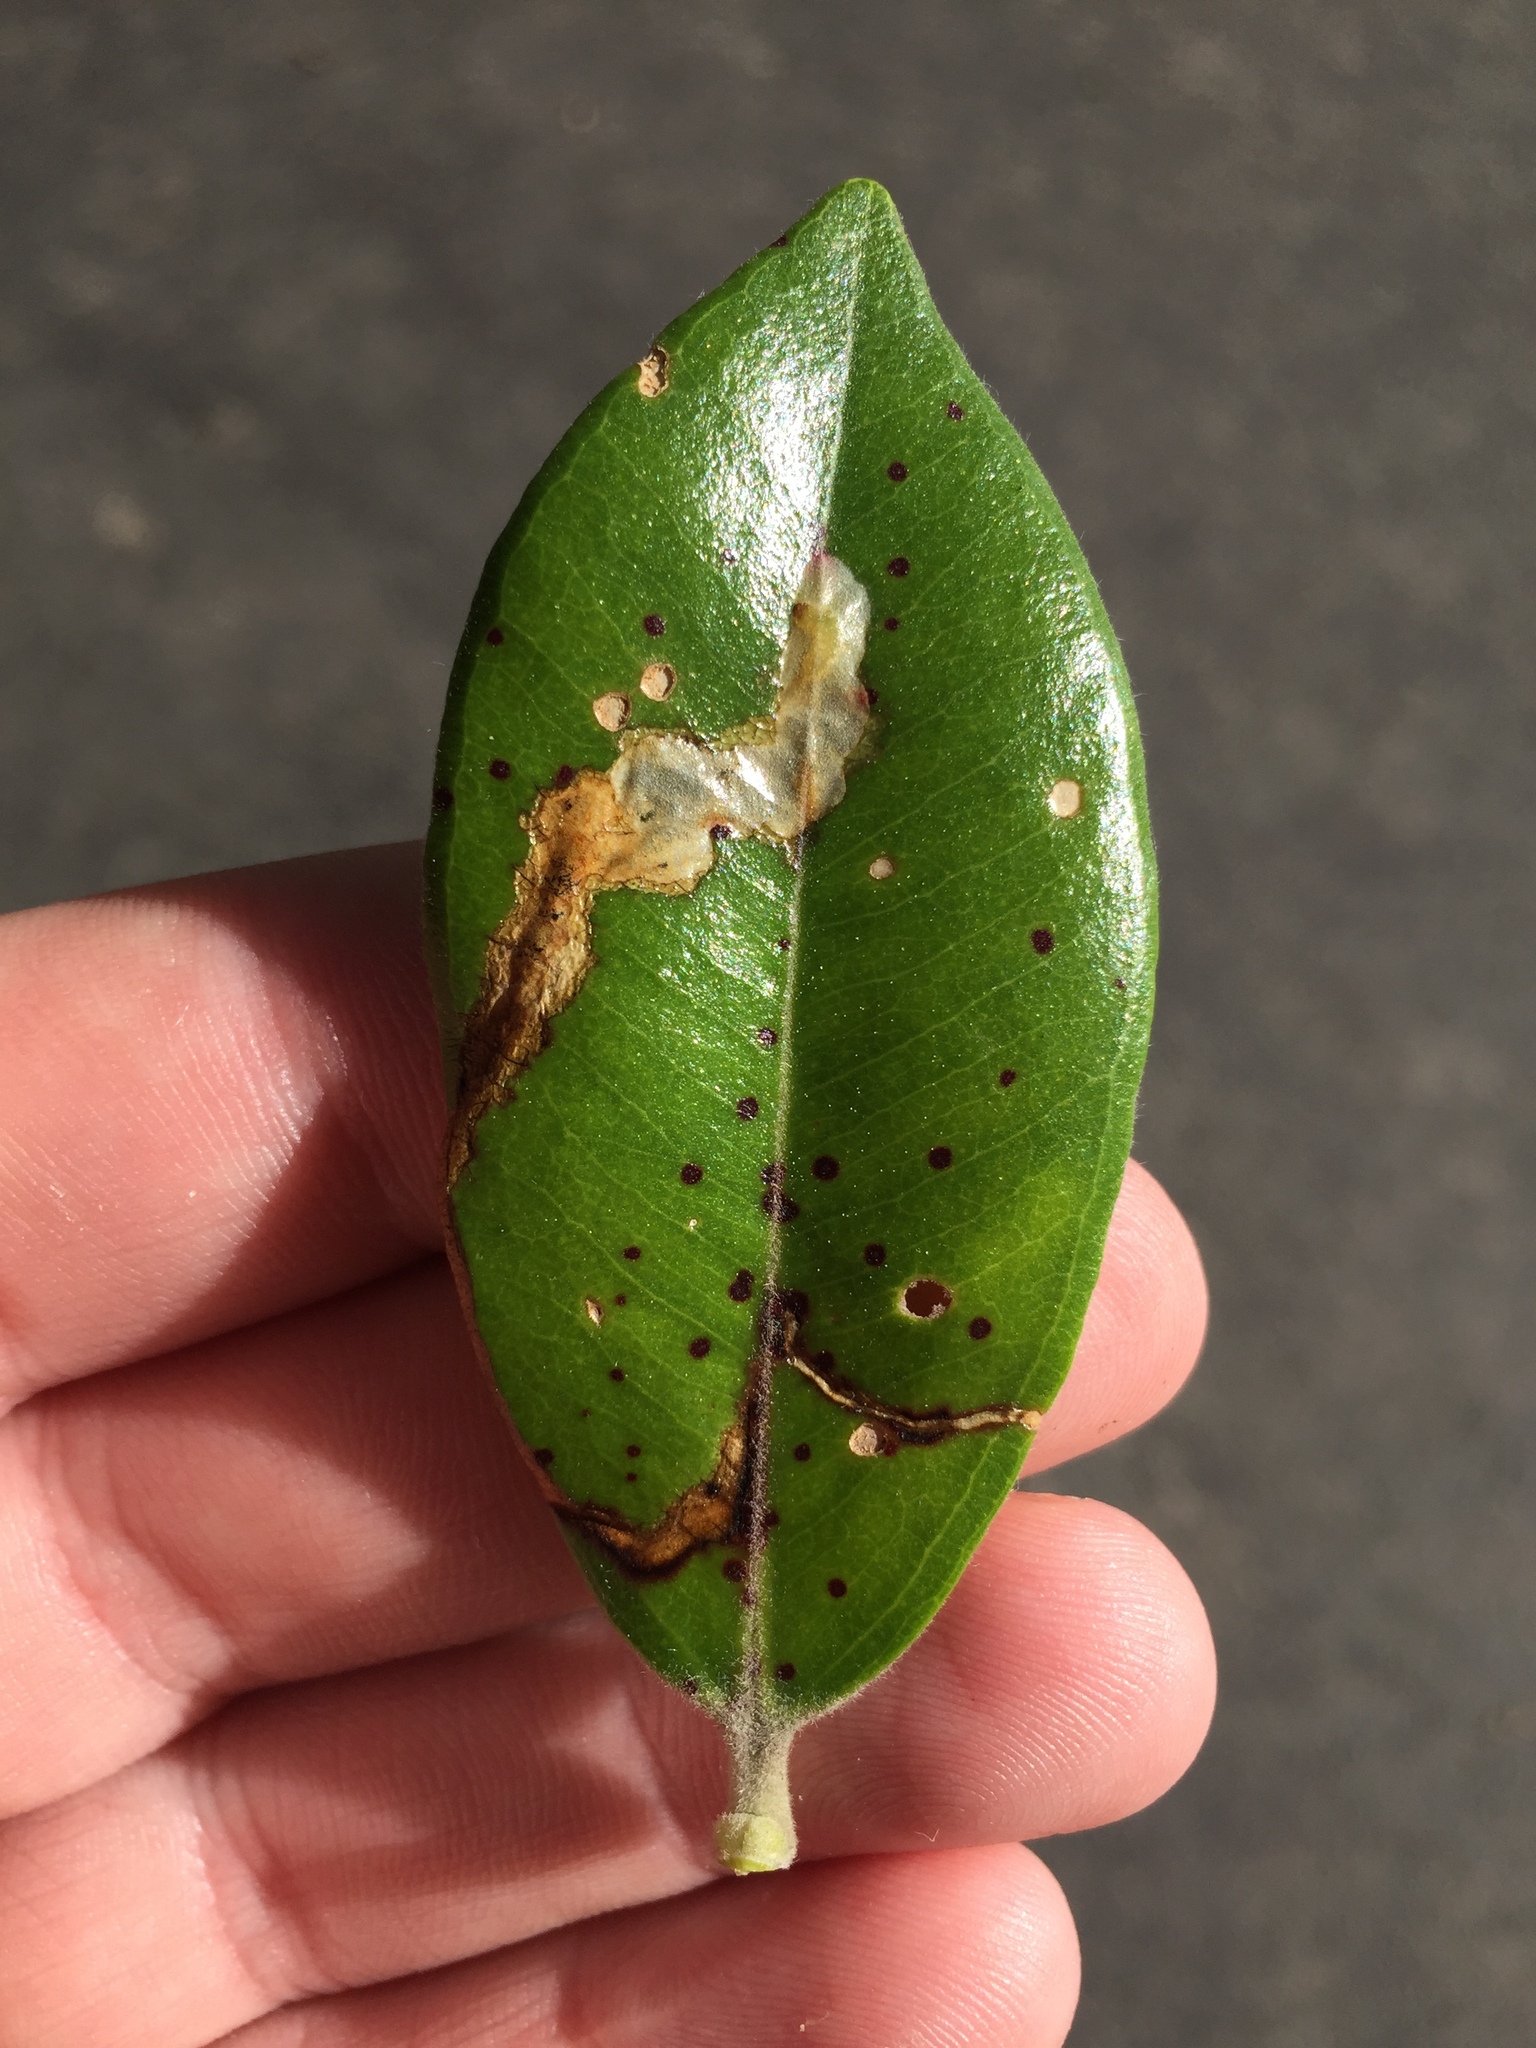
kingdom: Animalia
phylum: Arthropoda
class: Insecta
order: Coleoptera
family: Curculionidae
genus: Neomycta
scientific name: Neomycta rubida
